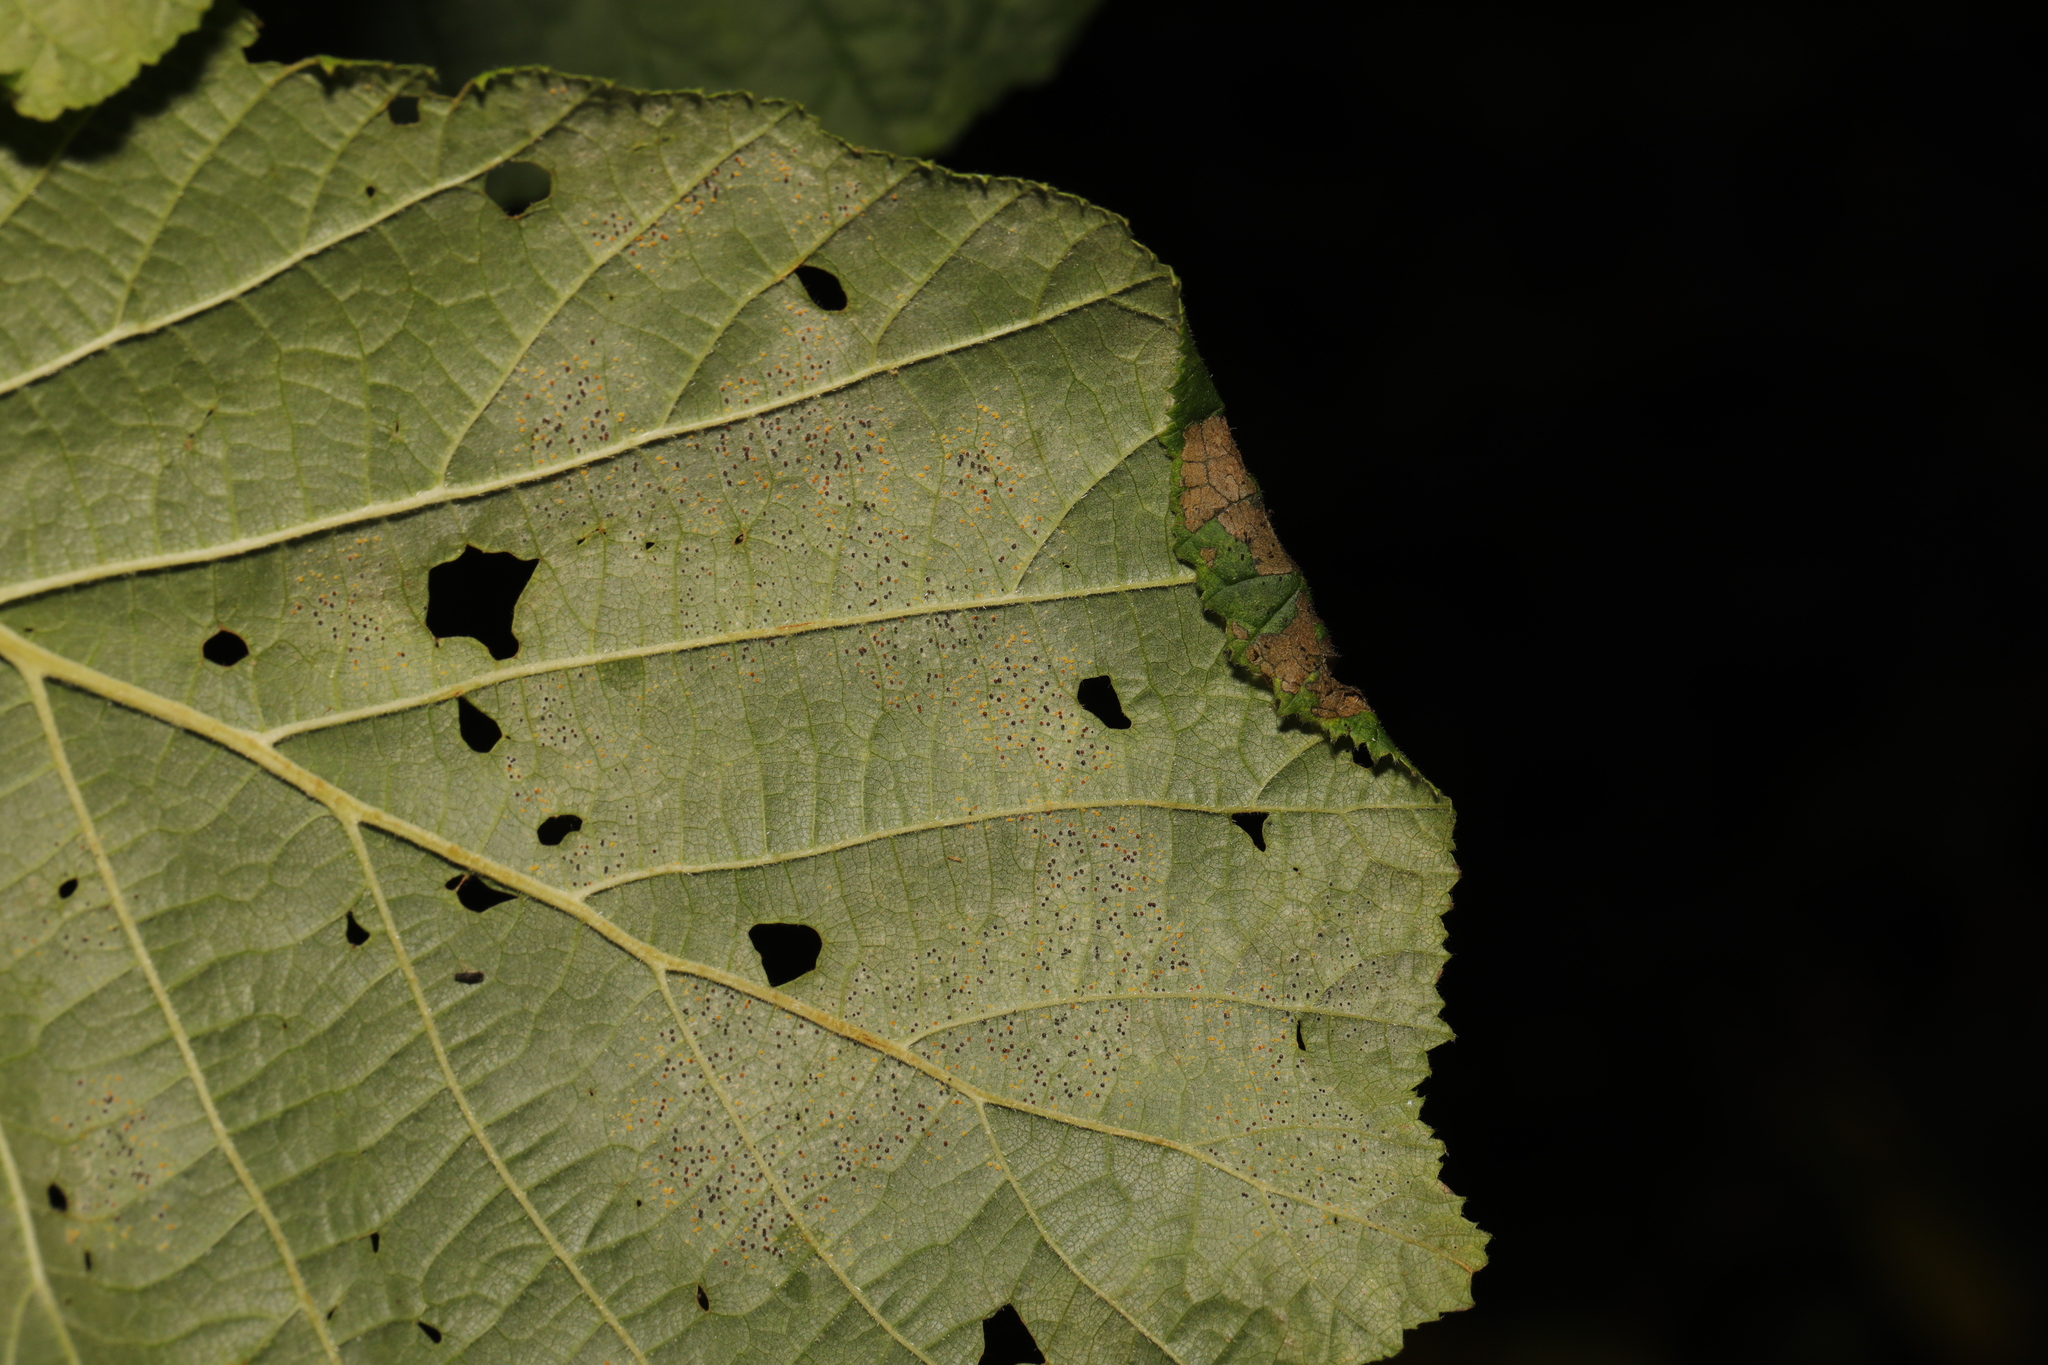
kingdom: Animalia
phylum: Arthropoda
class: Insecta
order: Lepidoptera
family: Gracillariidae
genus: Parornix
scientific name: Parornix devoniella
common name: Hazel slender
